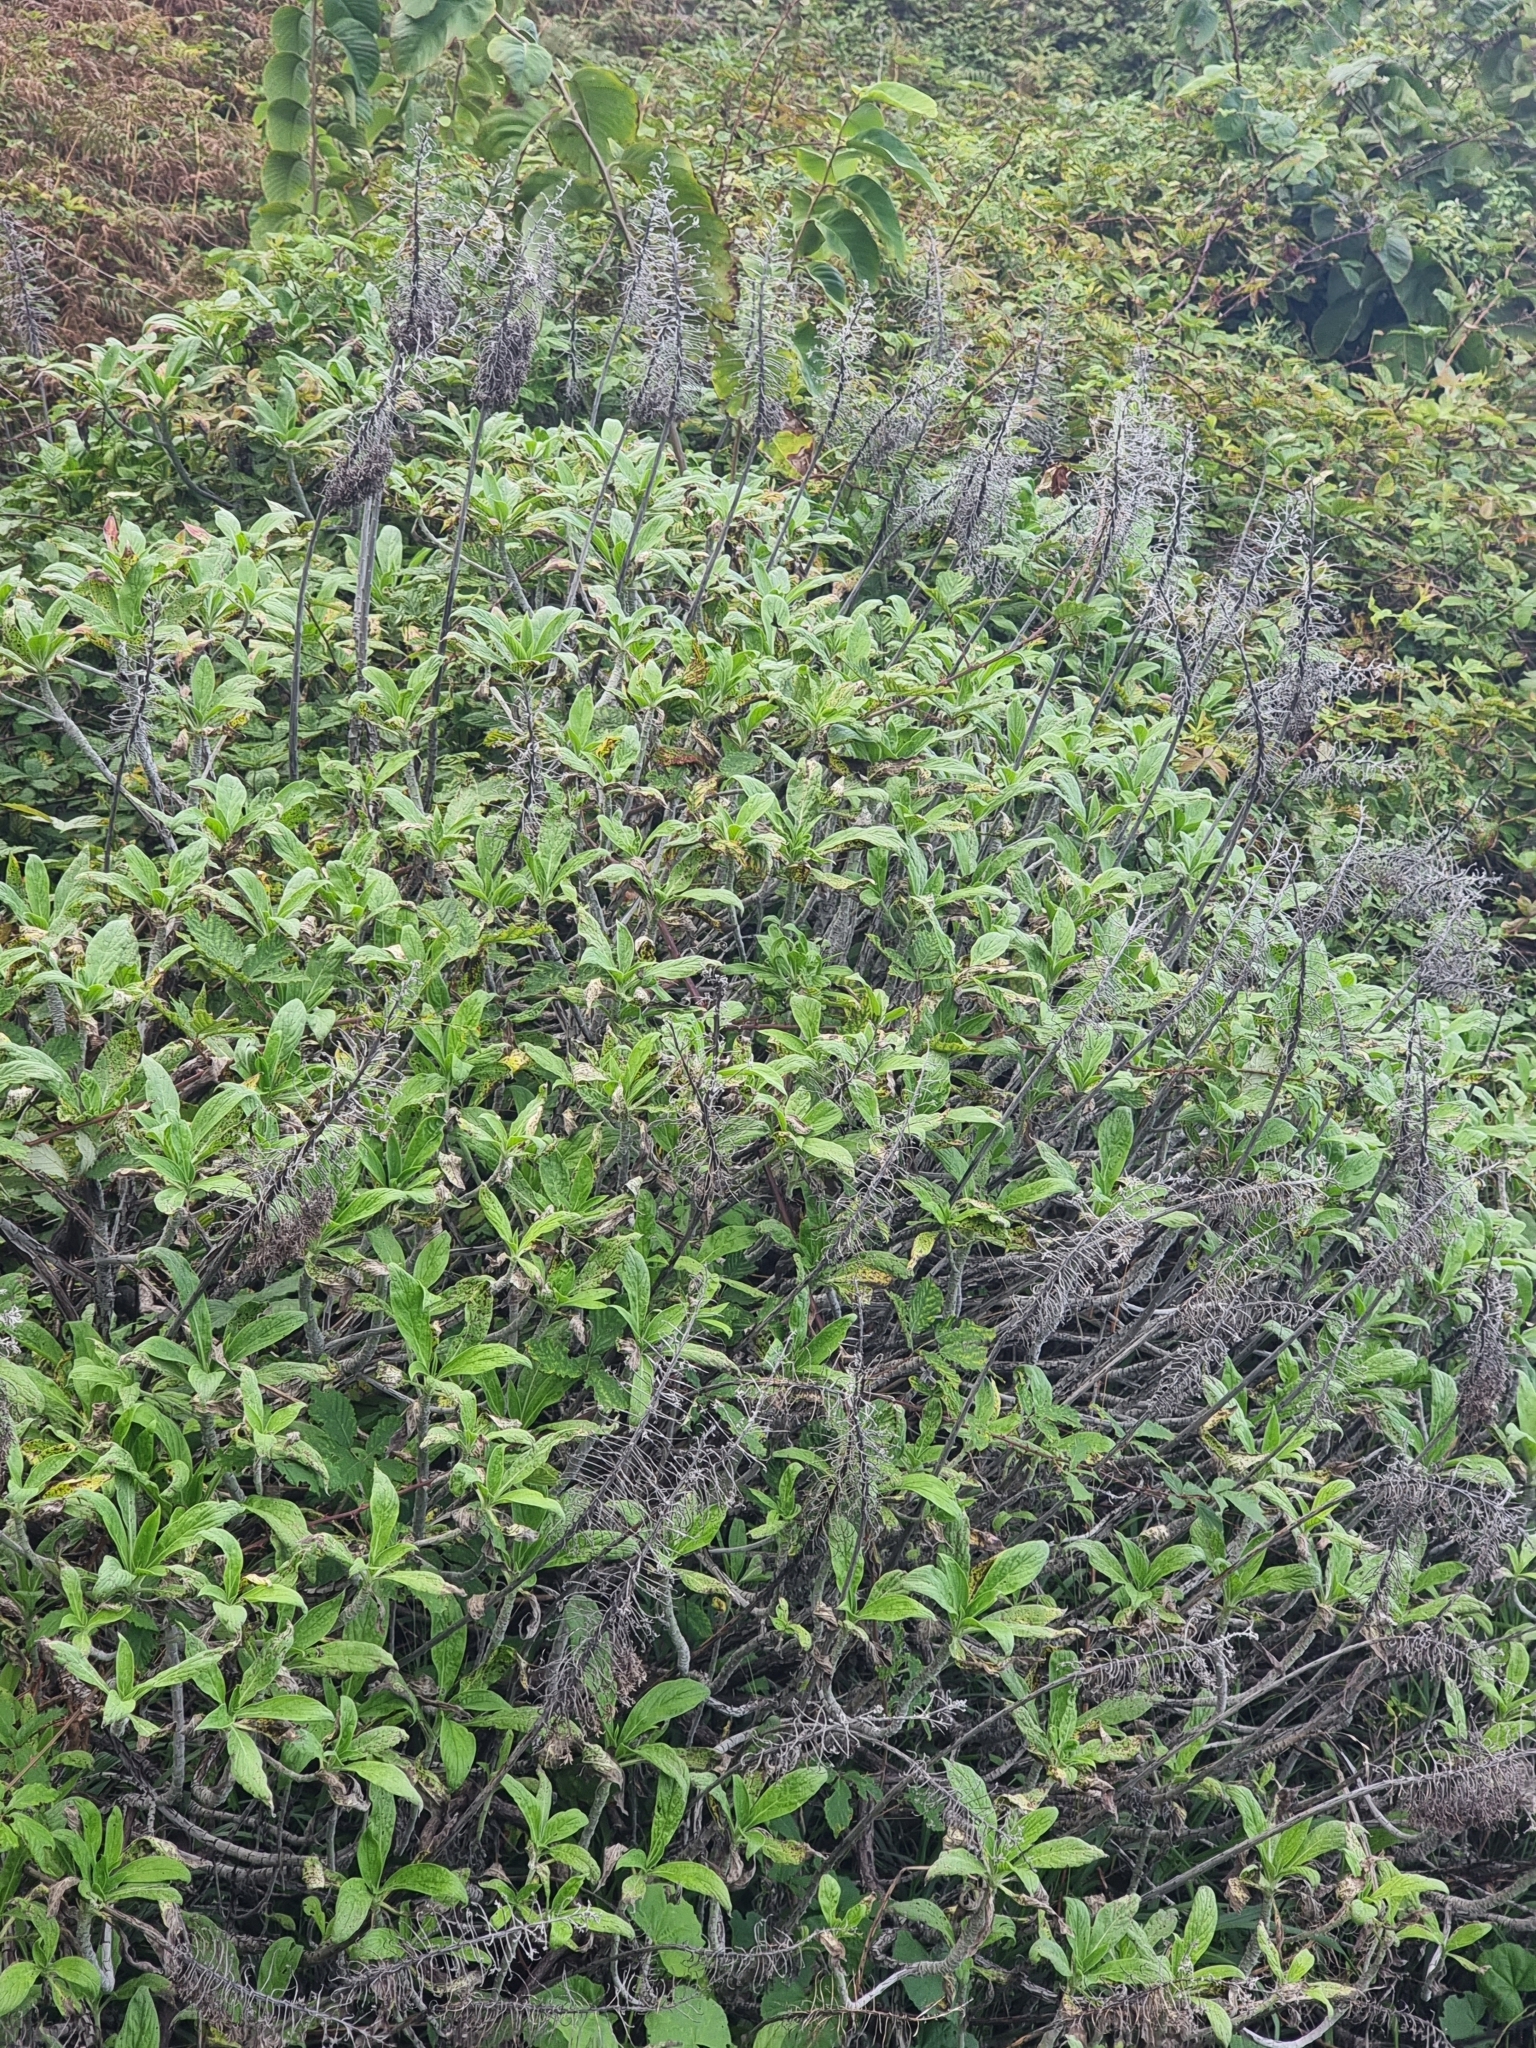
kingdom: Plantae
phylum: Tracheophyta
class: Magnoliopsida
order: Boraginales
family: Boraginaceae
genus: Echium
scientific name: Echium candicans
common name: Pride of madeira
